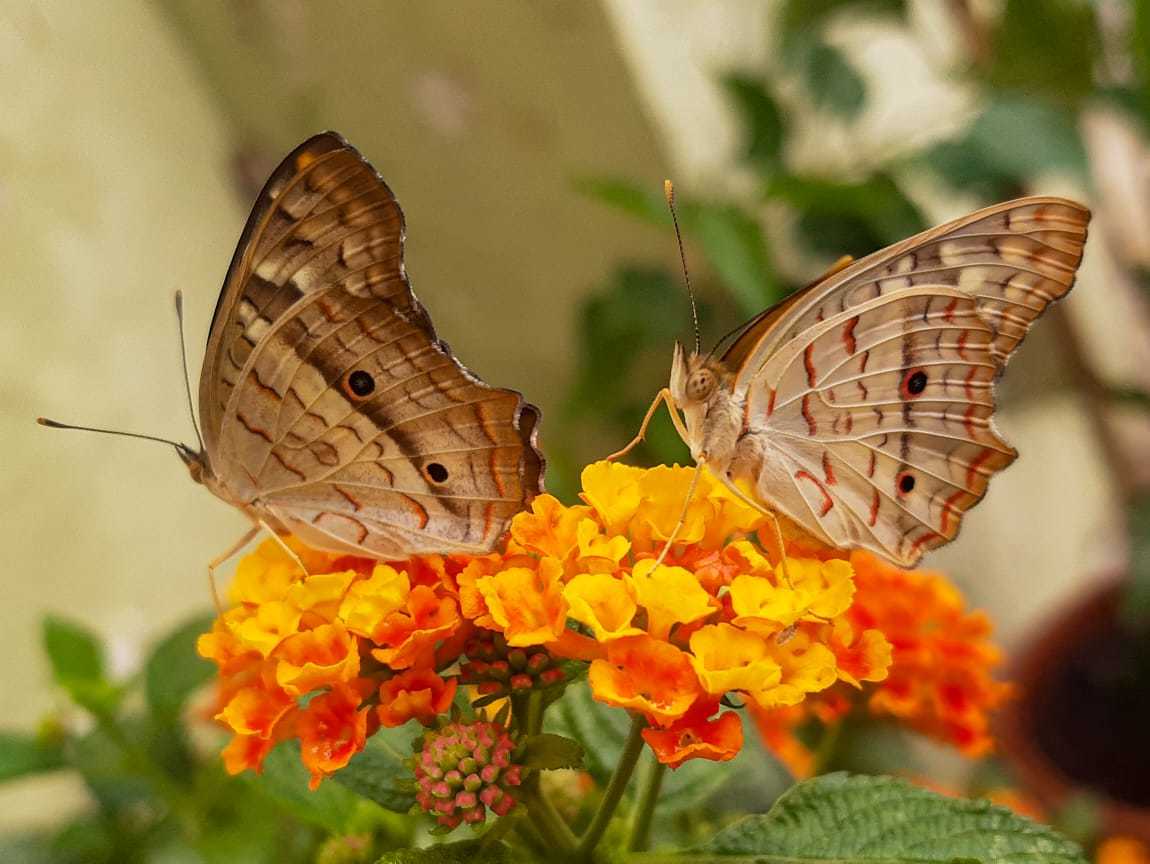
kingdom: Animalia
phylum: Arthropoda
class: Insecta
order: Lepidoptera
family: Nymphalidae
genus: Anartia
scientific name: Anartia jatrophae
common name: White peacock
